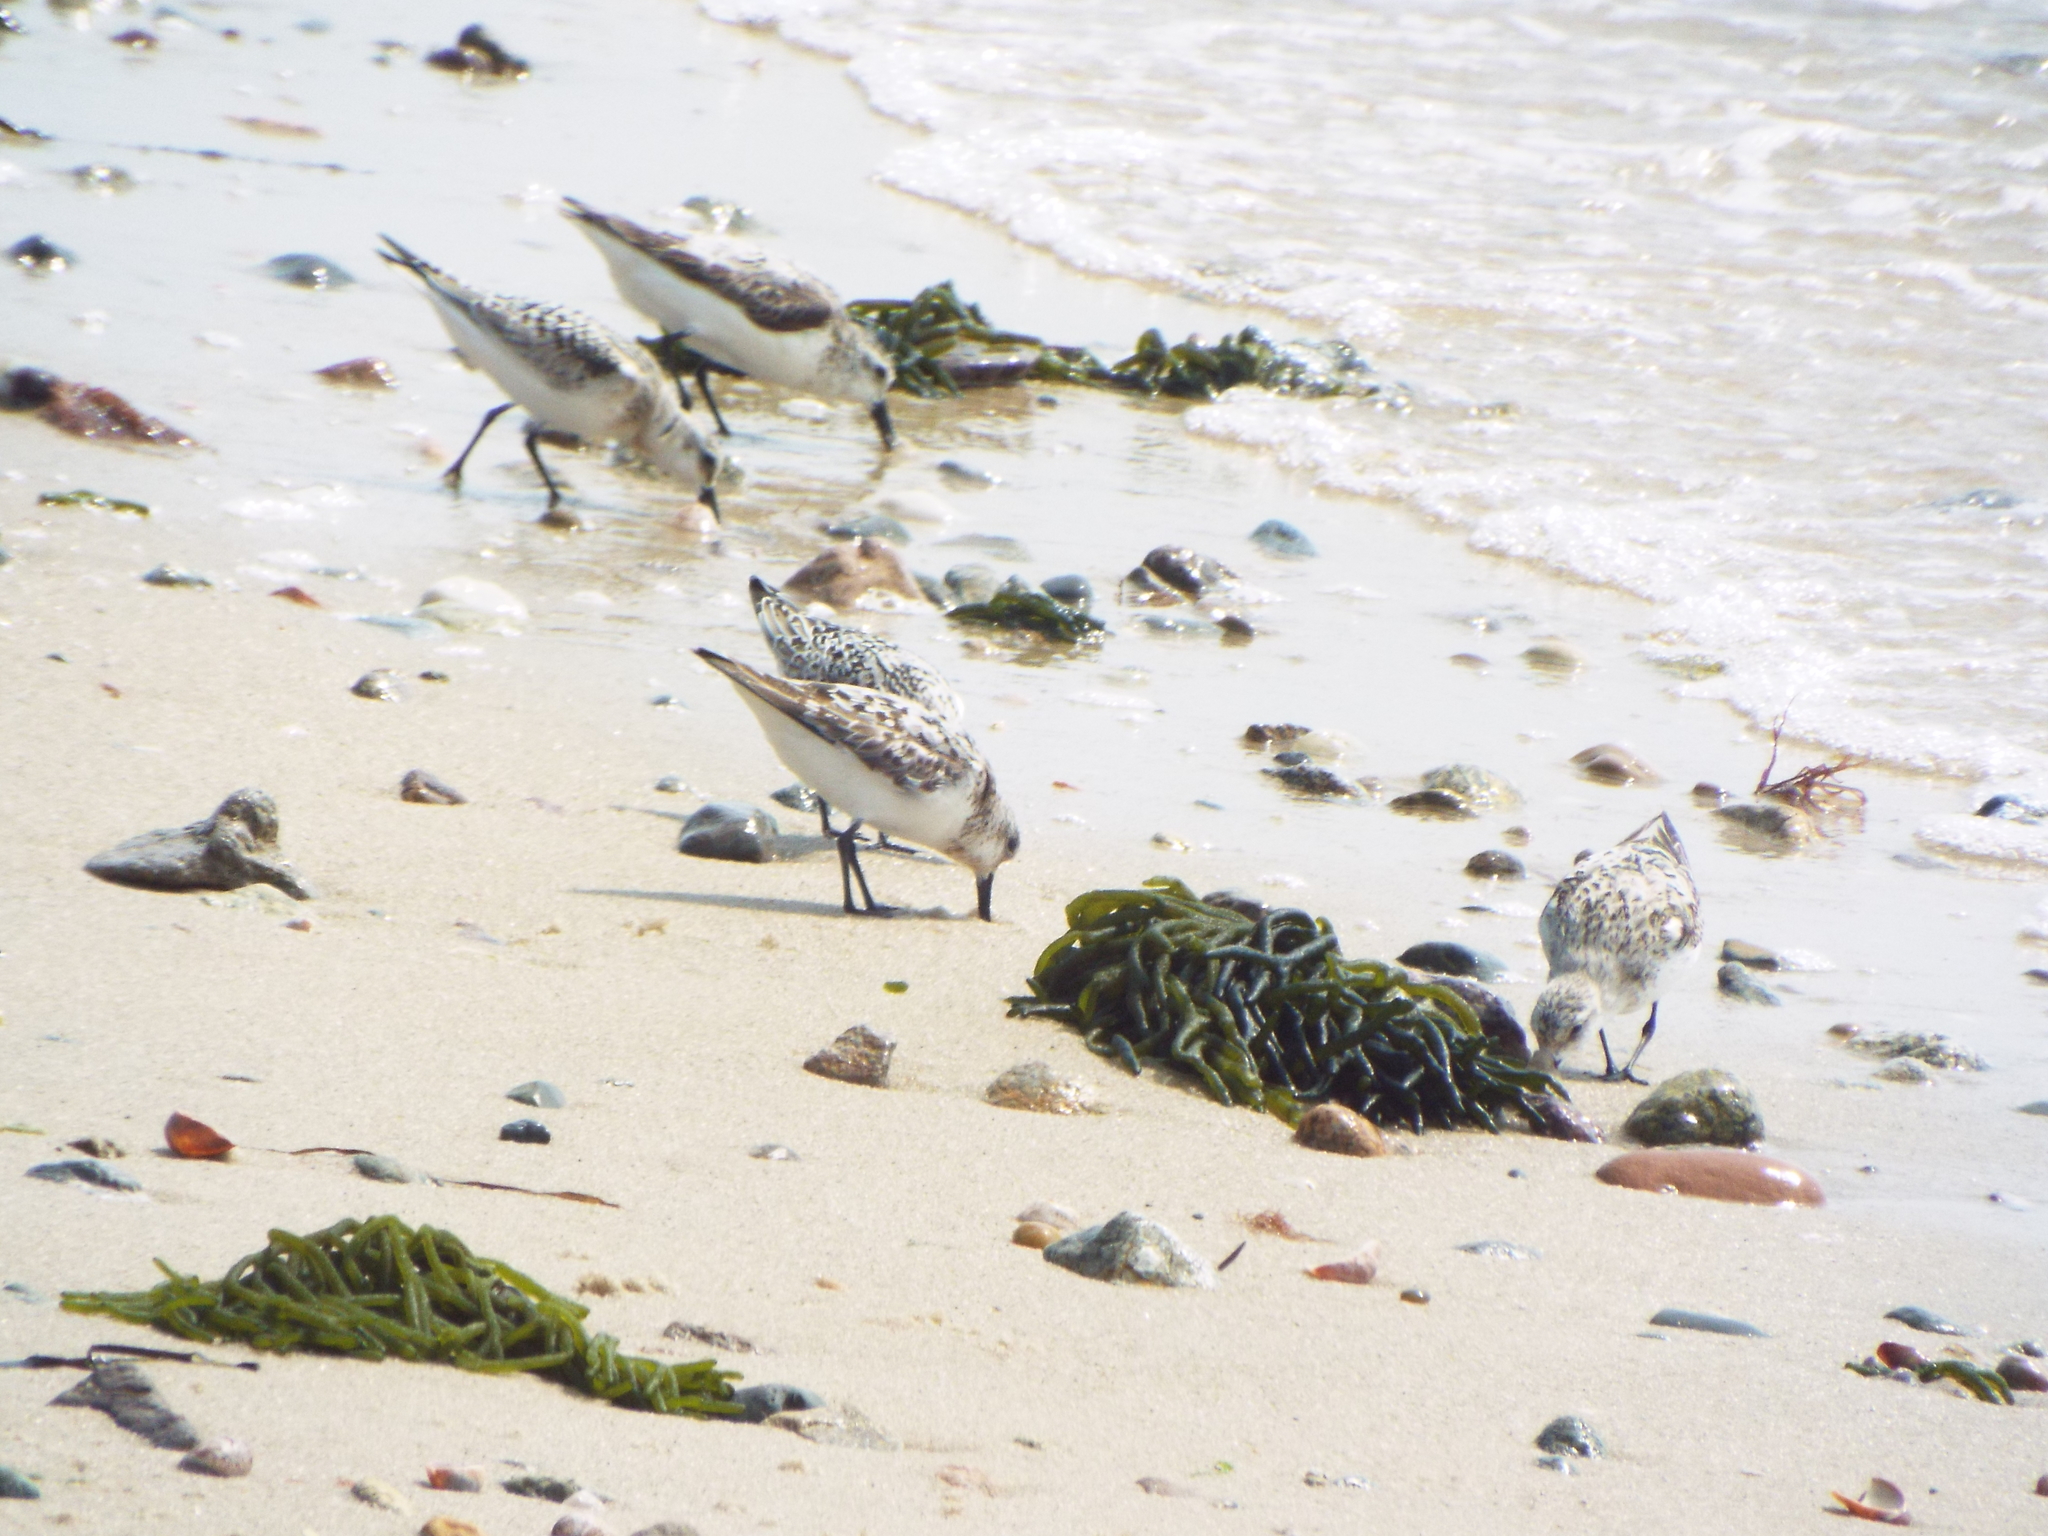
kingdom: Animalia
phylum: Chordata
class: Aves
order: Charadriiformes
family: Scolopacidae
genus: Calidris
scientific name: Calidris alba
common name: Sanderling
